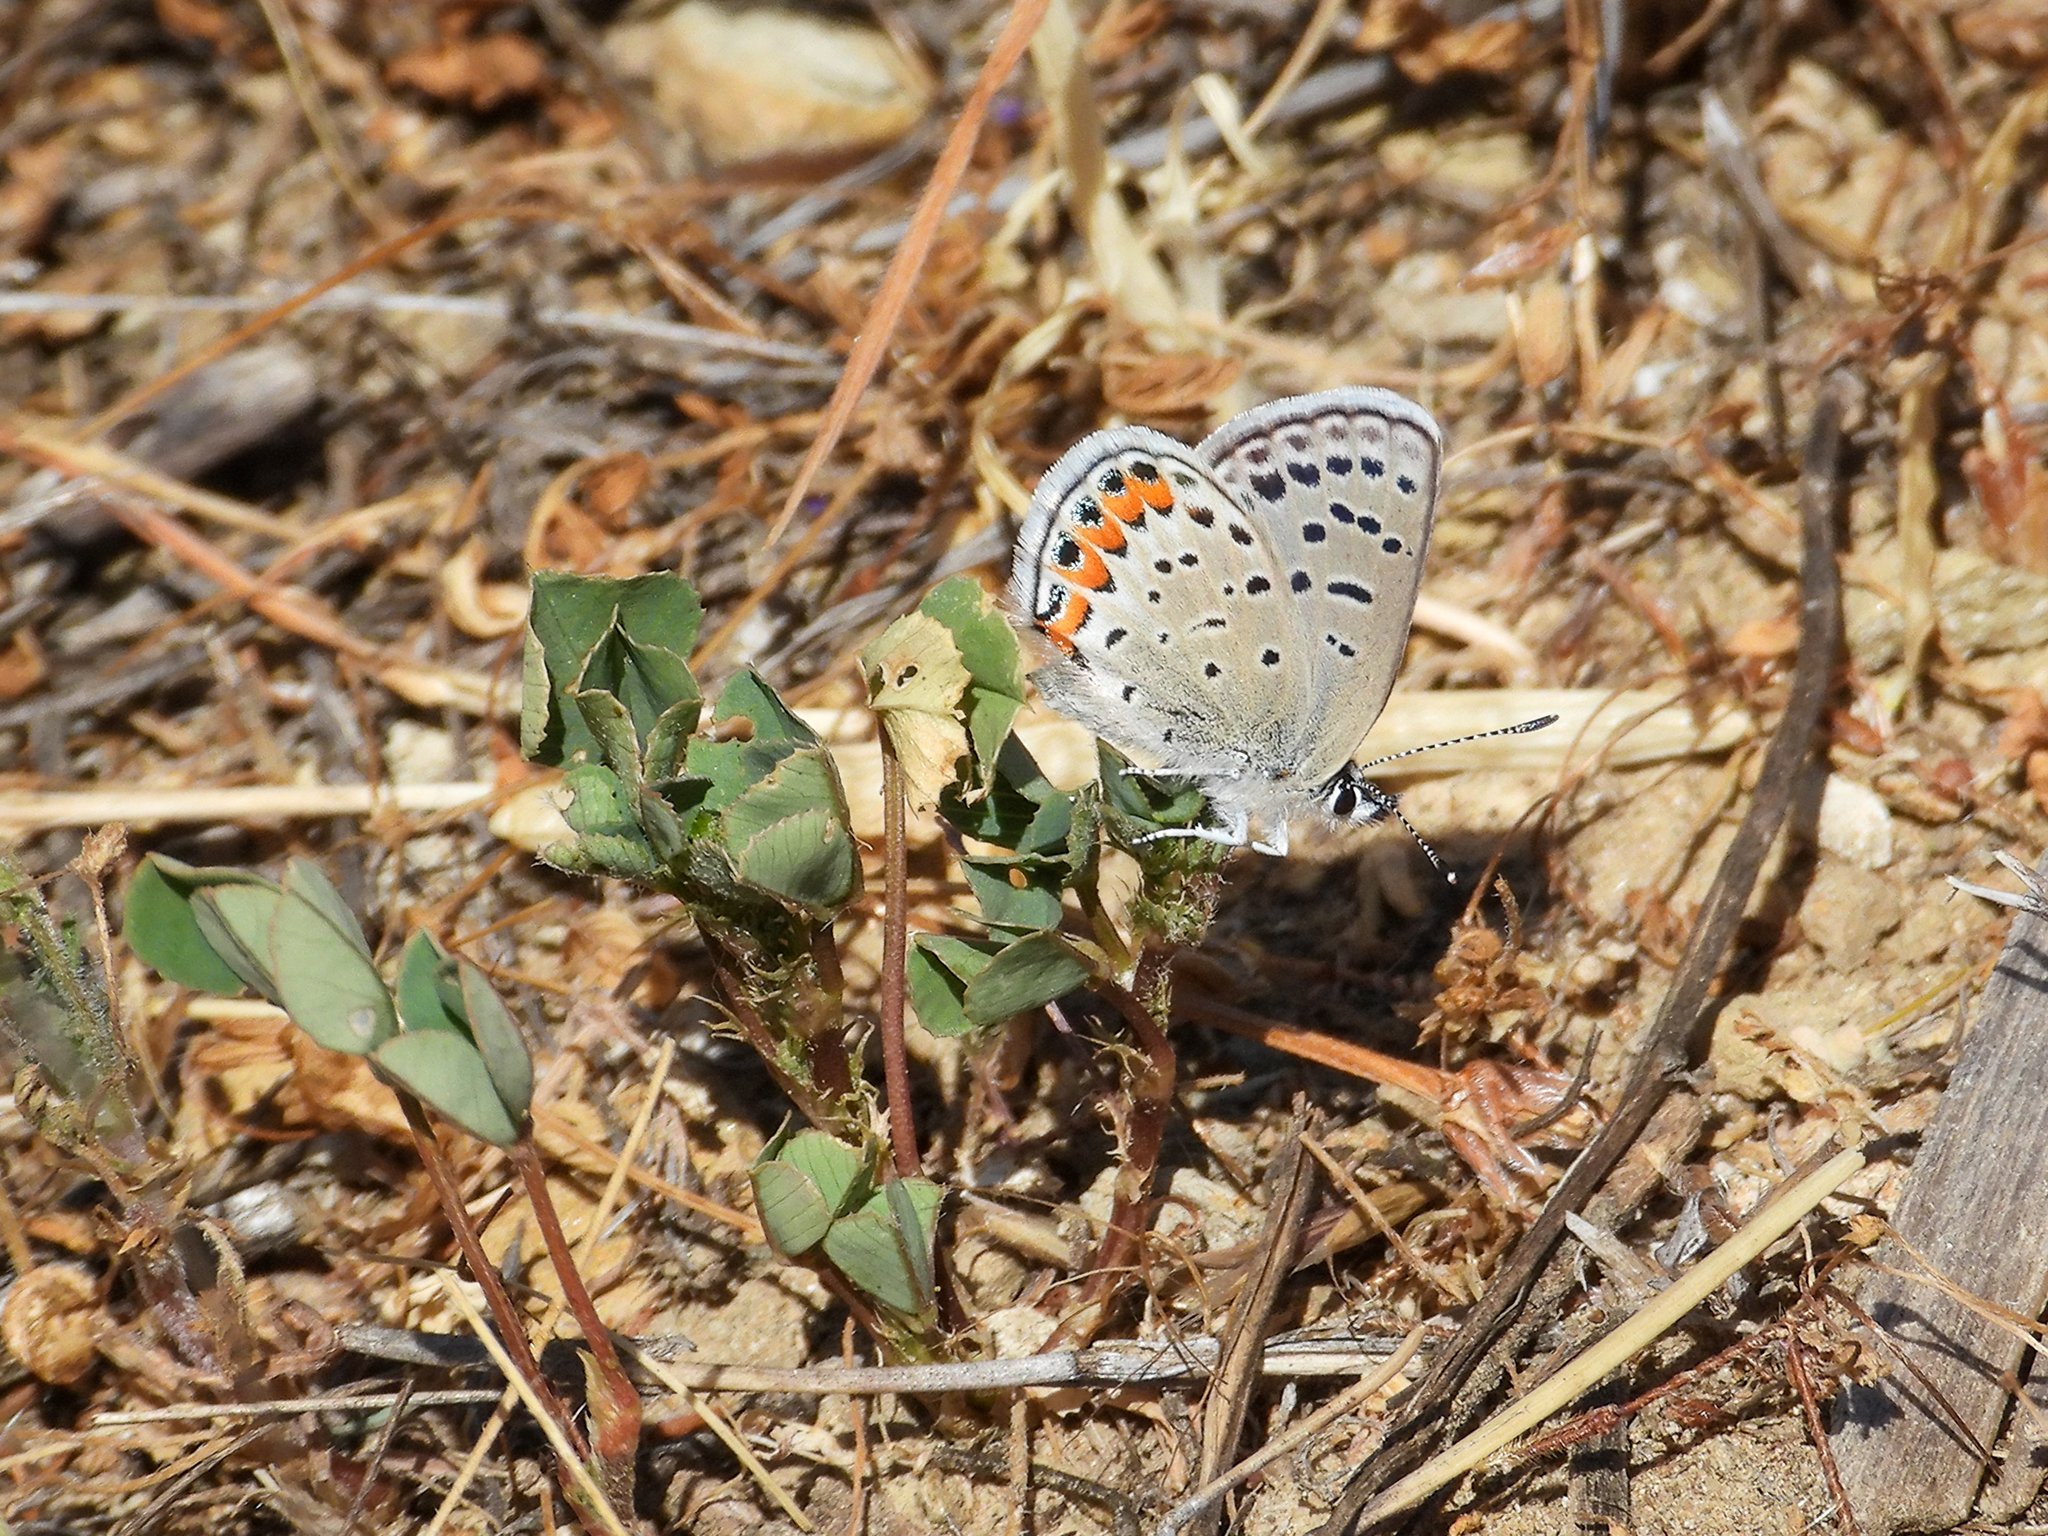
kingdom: Animalia
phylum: Arthropoda
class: Insecta
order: Lepidoptera
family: Lycaenidae
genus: Icaricia
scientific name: Icaricia acmon
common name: Acmon blue
